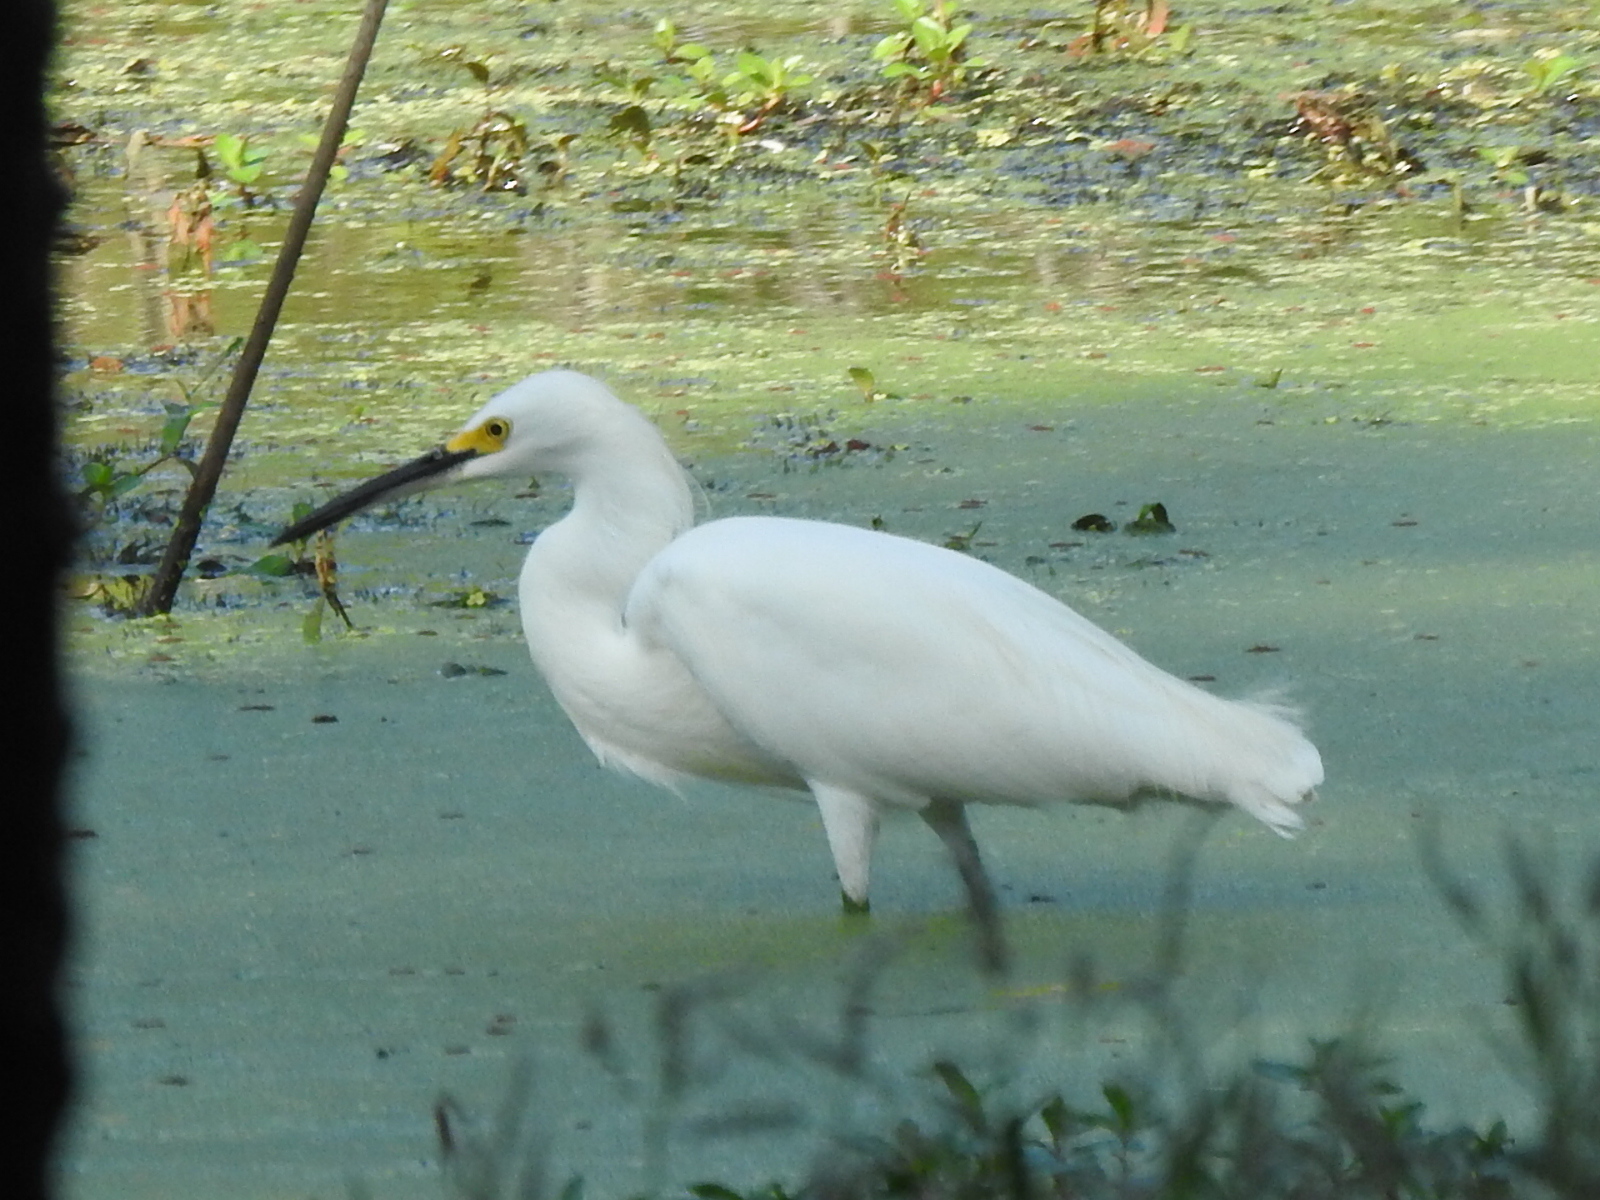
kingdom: Animalia
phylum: Chordata
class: Aves
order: Pelecaniformes
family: Ardeidae
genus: Egretta
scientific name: Egretta thula
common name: Snowy egret
